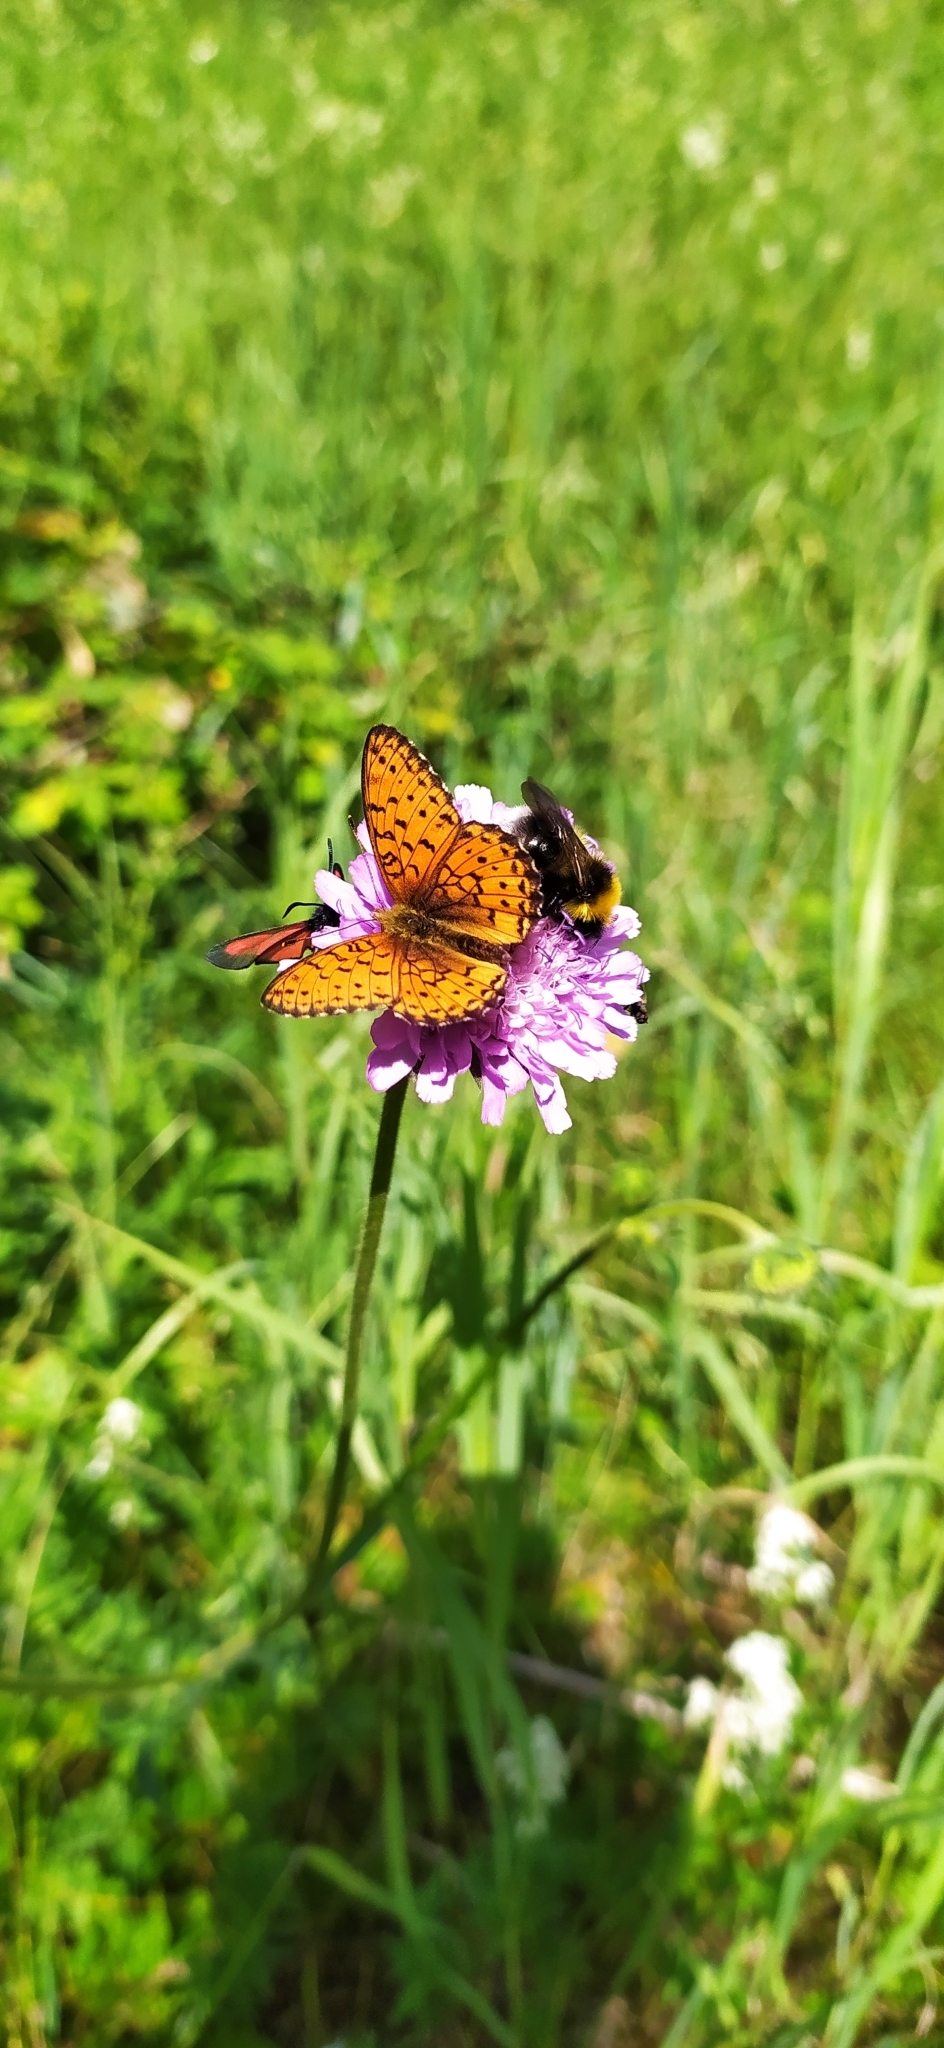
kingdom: Animalia
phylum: Arthropoda
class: Insecta
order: Lepidoptera
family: Nymphalidae
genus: Brenthis
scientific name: Brenthis ino
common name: Lesser marbled fritillary
